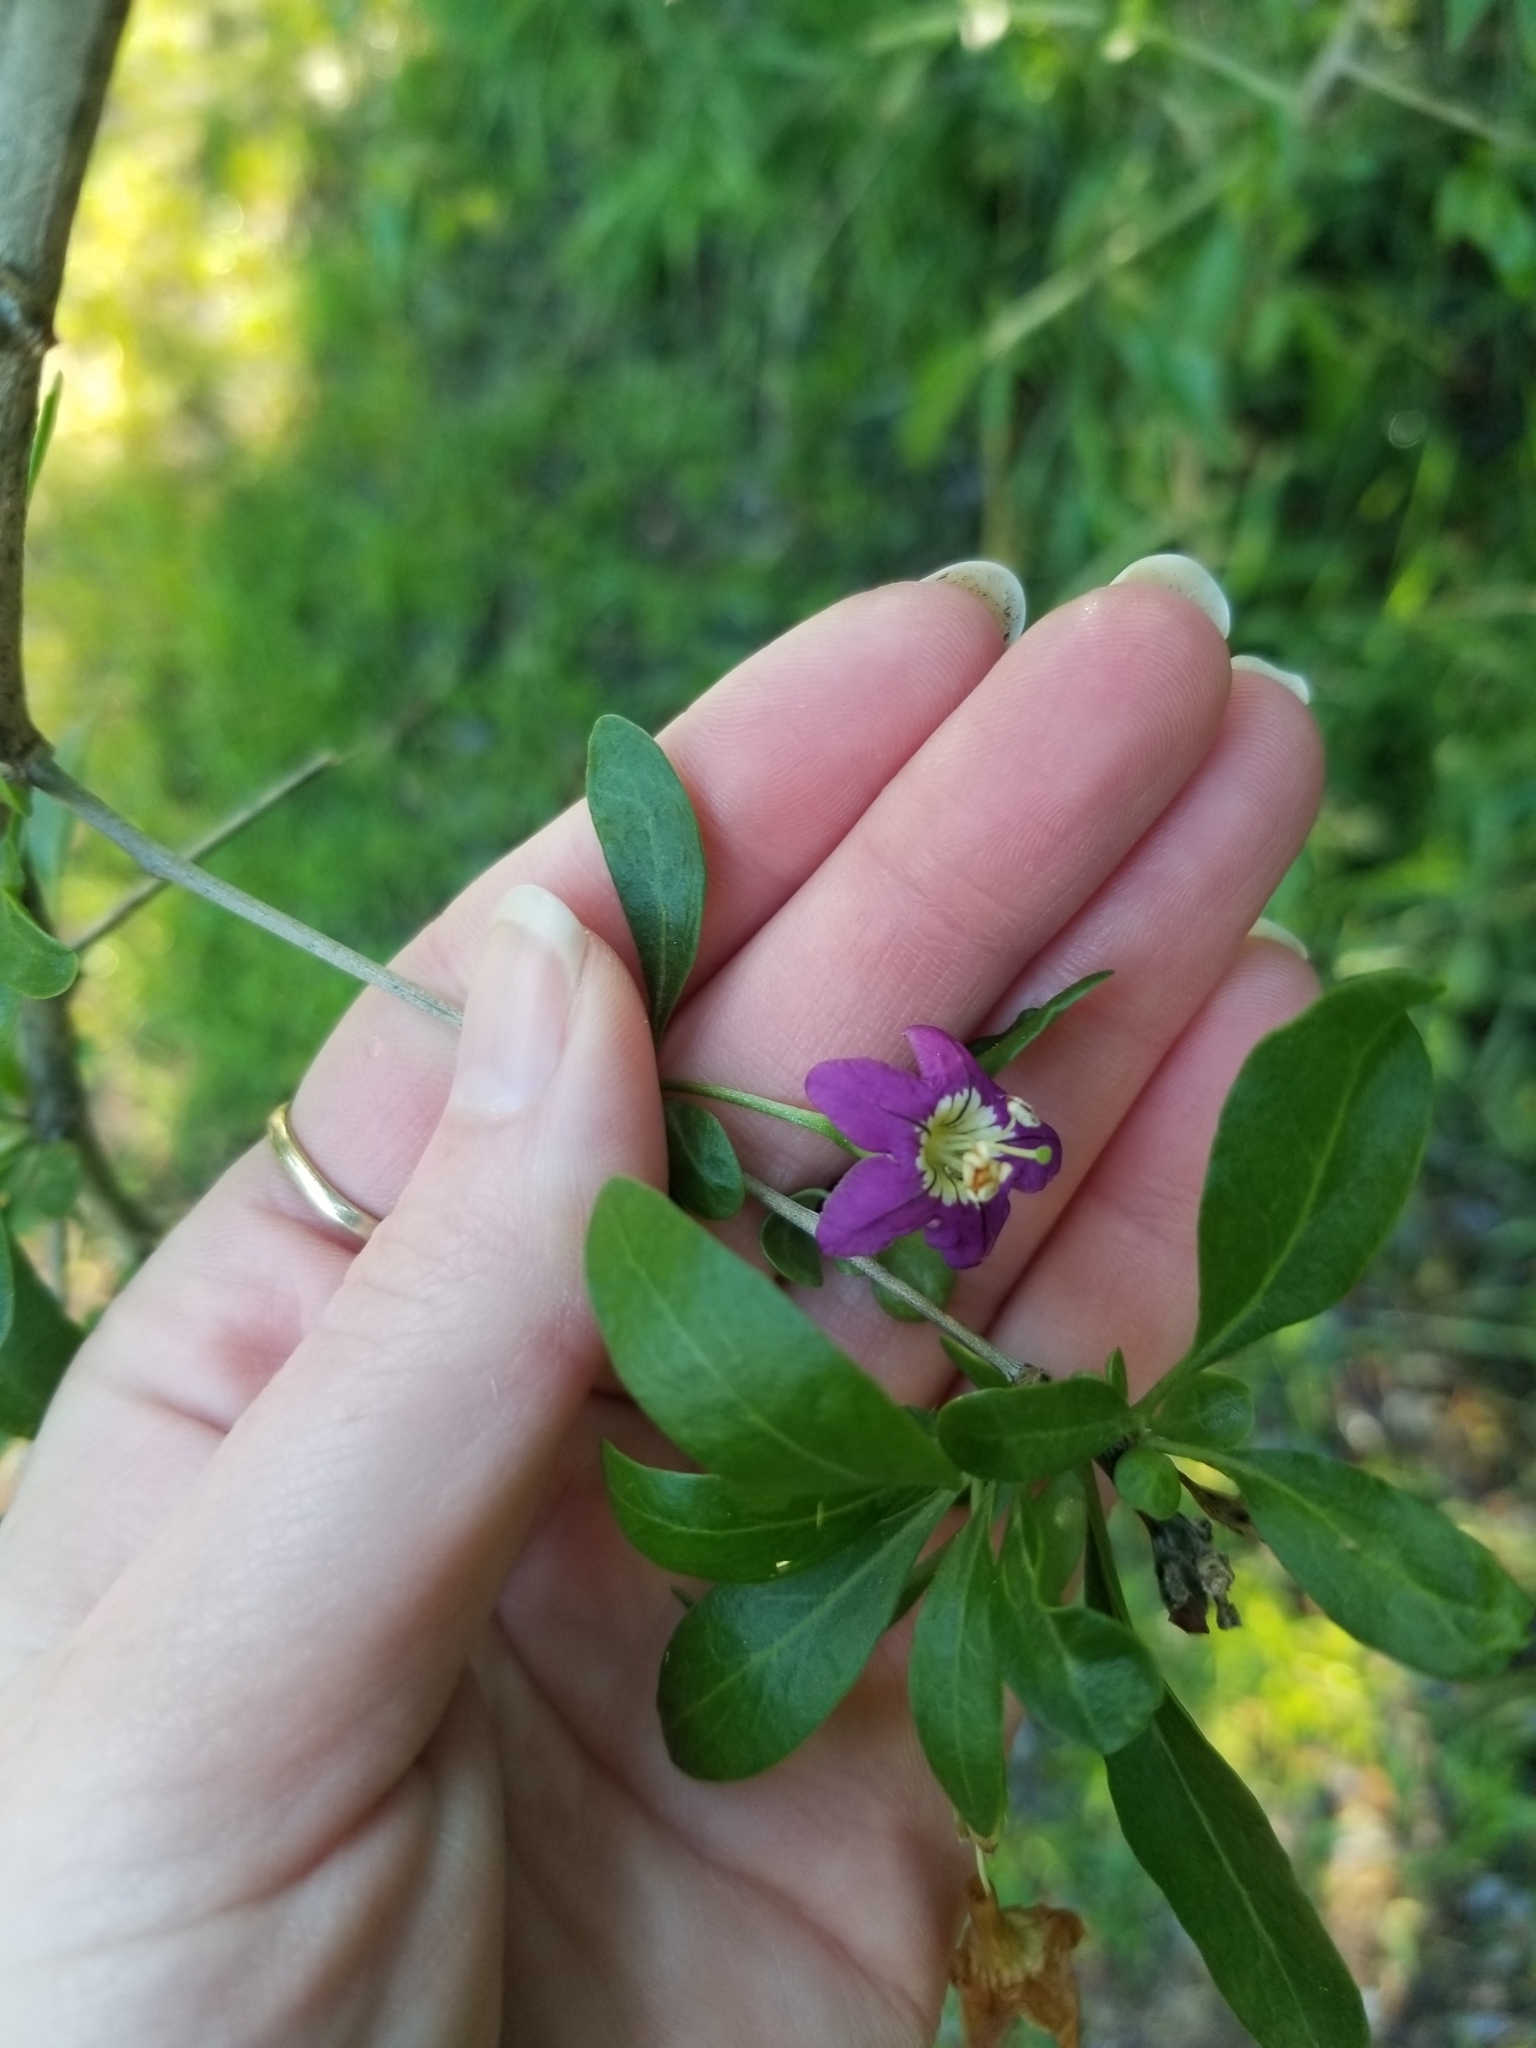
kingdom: Plantae
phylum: Tracheophyta
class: Magnoliopsida
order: Solanales
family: Solanaceae
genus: Lycium
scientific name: Lycium barbarum
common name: Duke of argyll's teaplant
